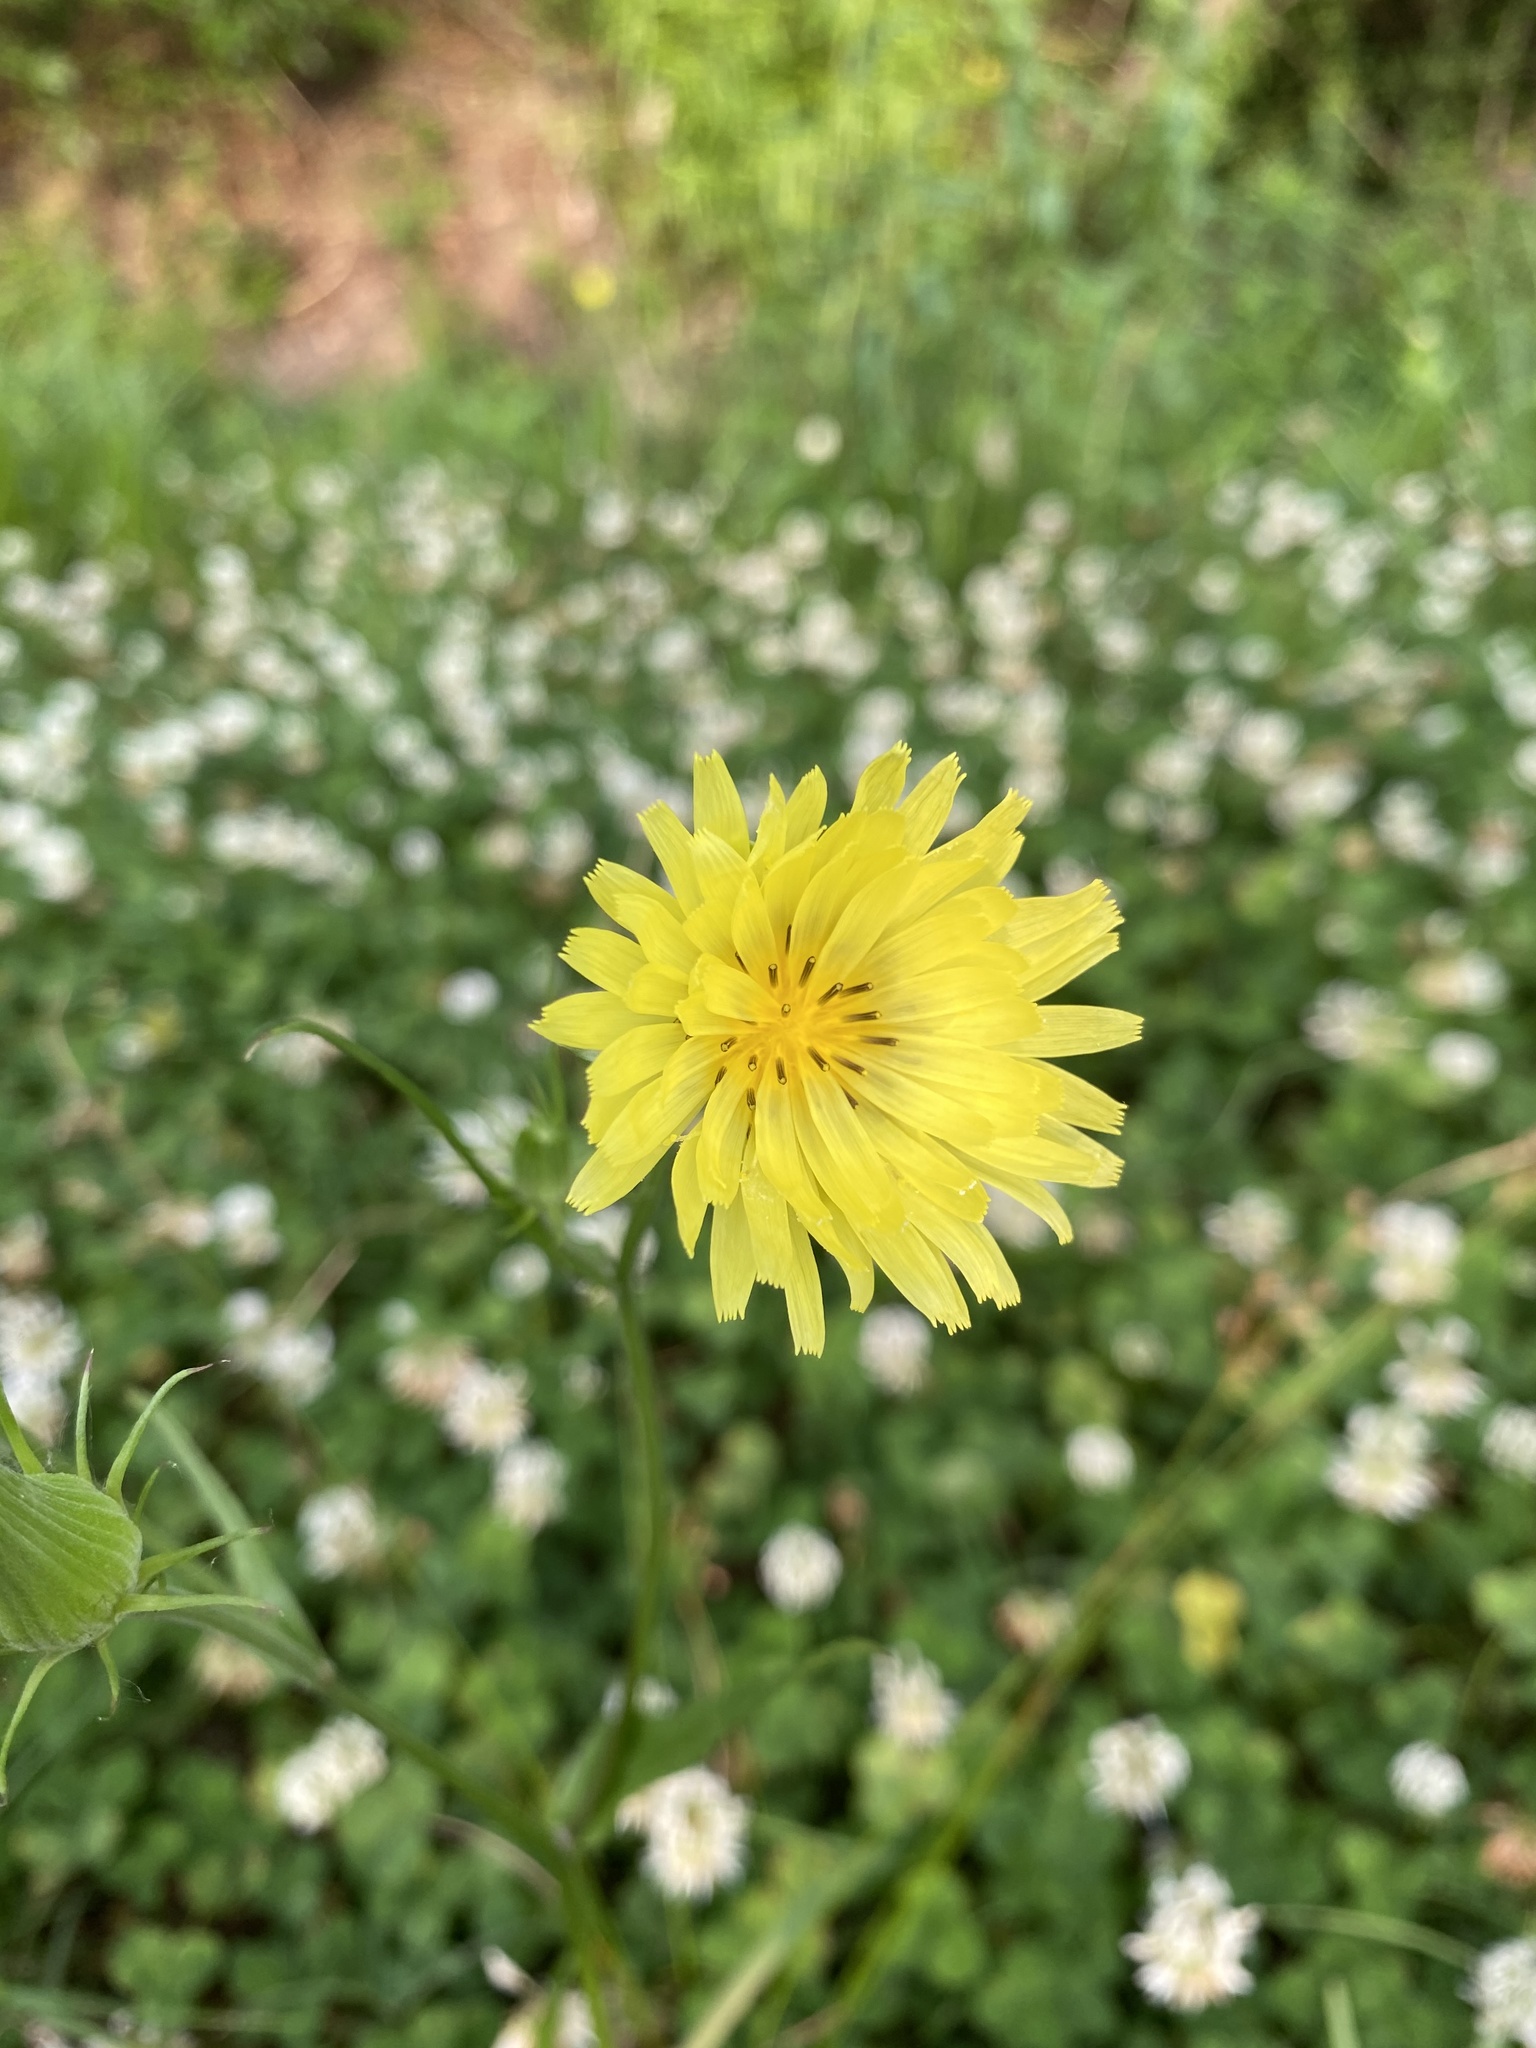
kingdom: Plantae
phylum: Tracheophyta
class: Magnoliopsida
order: Asterales
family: Asteraceae
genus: Pyrrhopappus
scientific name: Pyrrhopappus carolinianus
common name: Carolina desert-chicory
